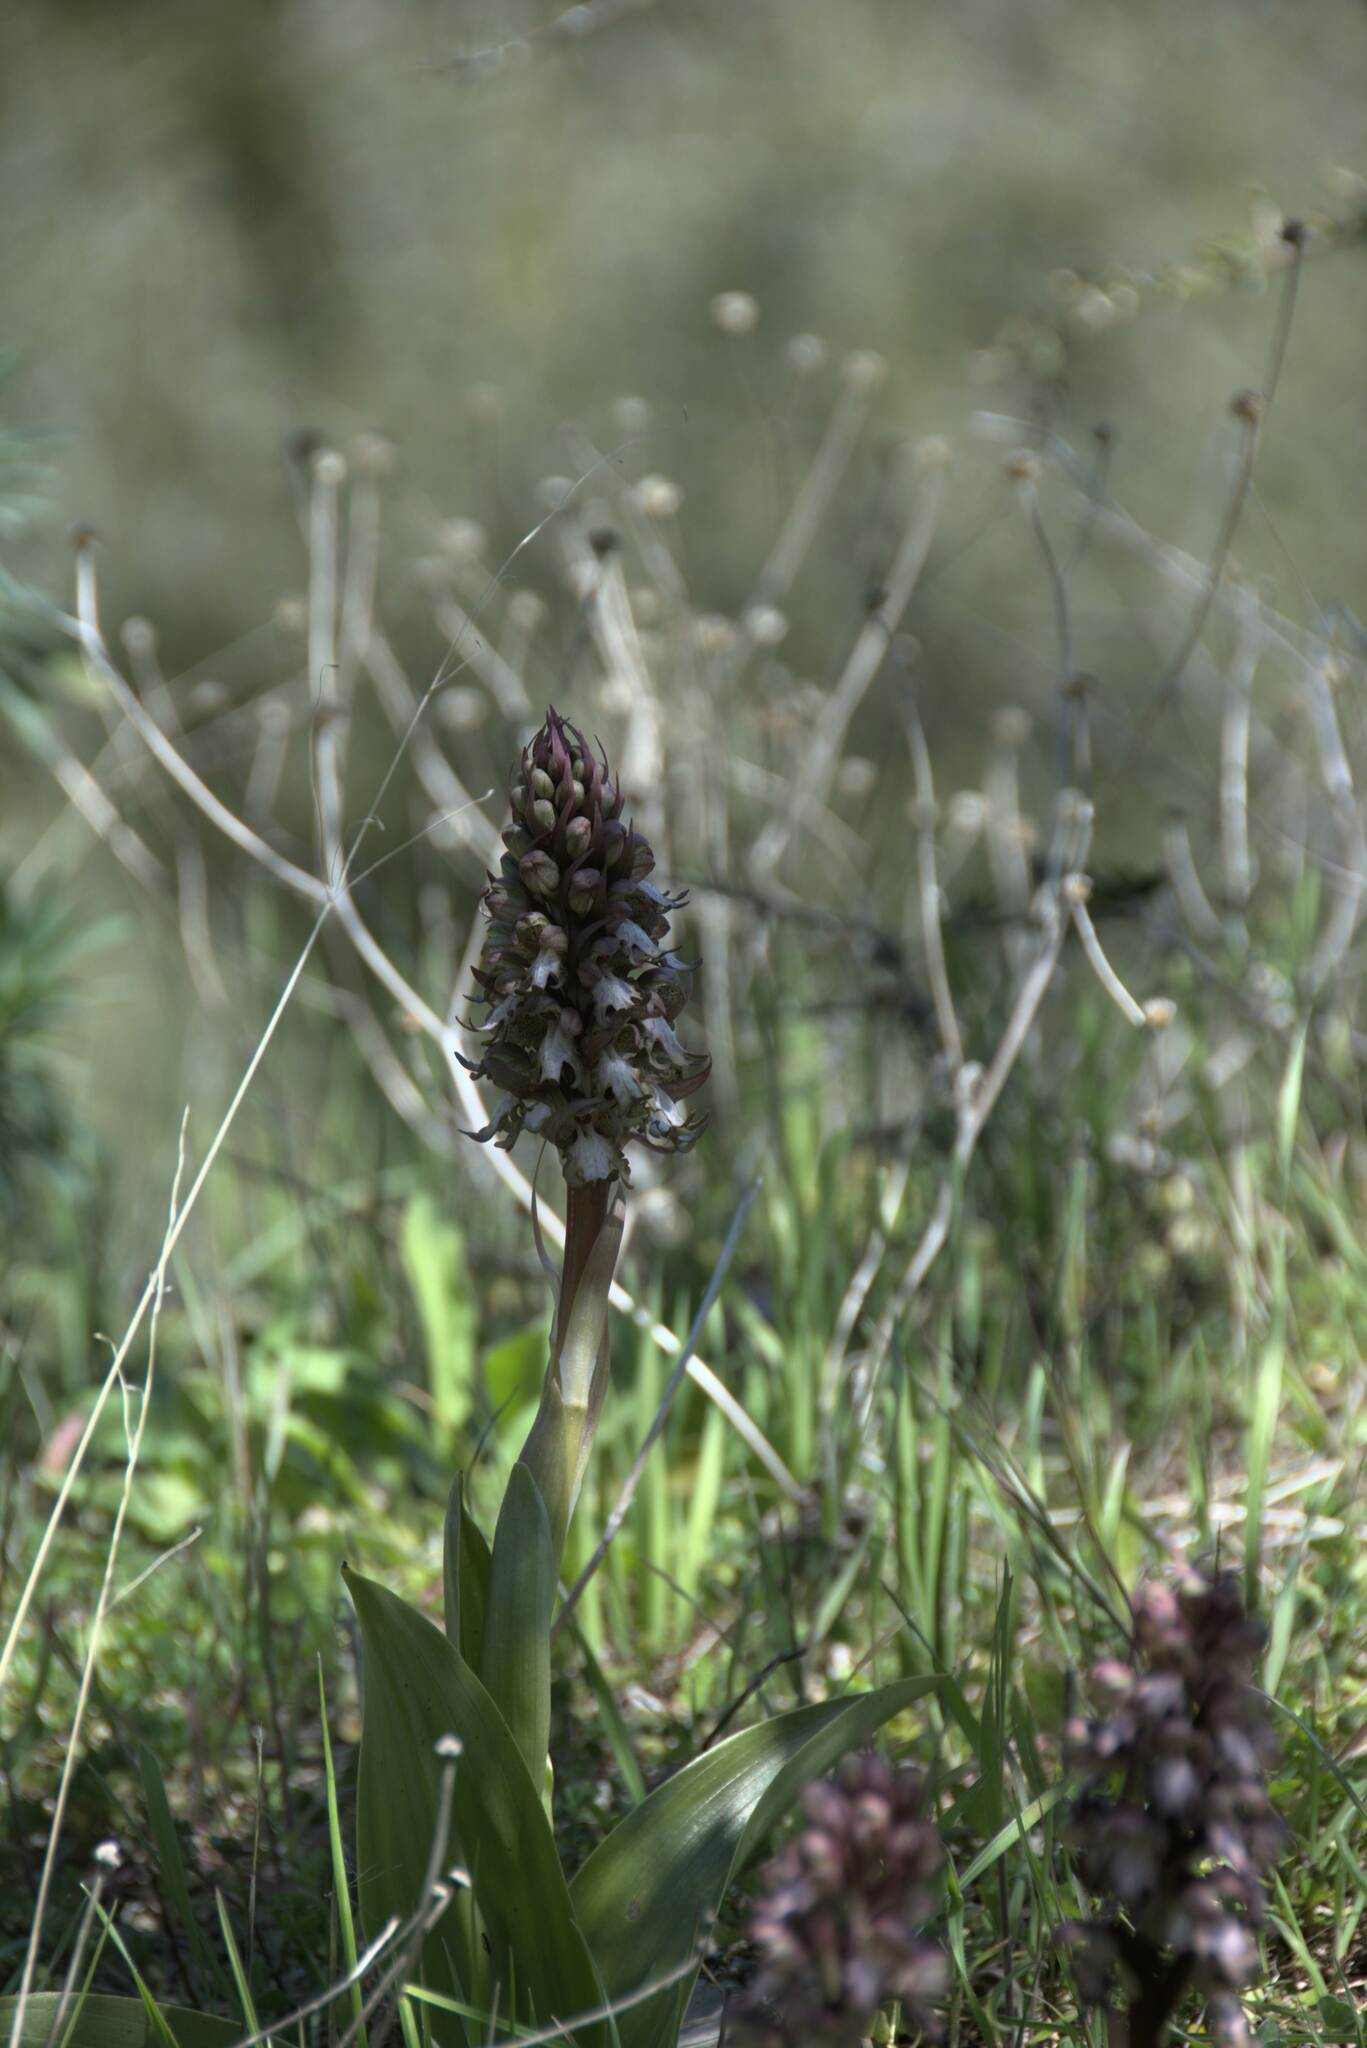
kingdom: Plantae
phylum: Tracheophyta
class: Liliopsida
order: Asparagales
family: Orchidaceae
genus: Himantoglossum
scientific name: Himantoglossum robertianum
